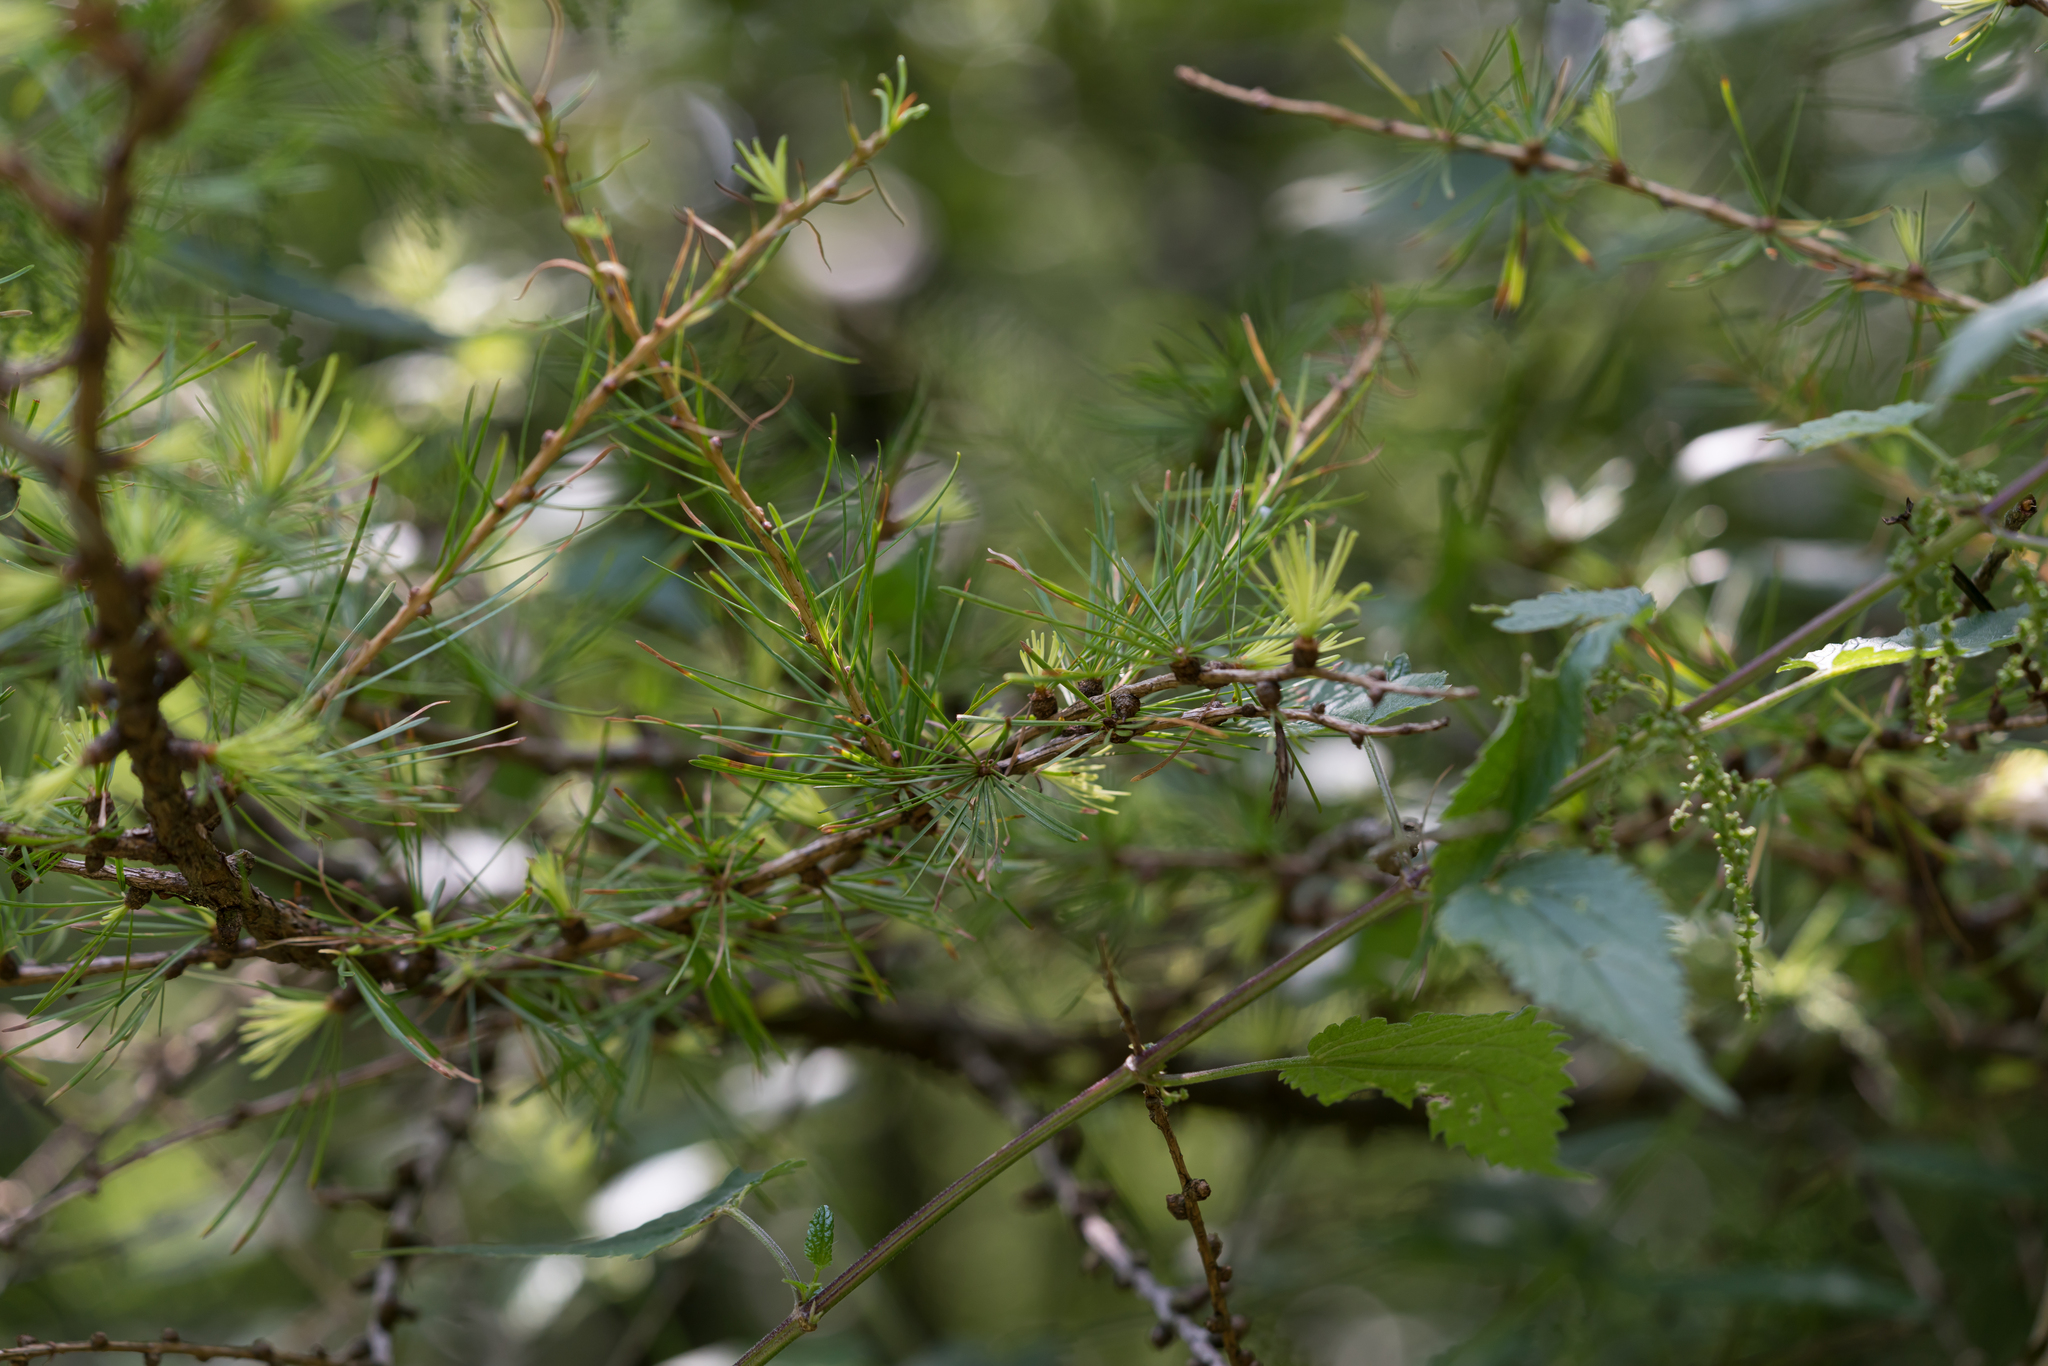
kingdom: Plantae
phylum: Tracheophyta
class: Pinopsida
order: Pinales
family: Pinaceae
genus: Larix
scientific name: Larix decidua
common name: European larch
